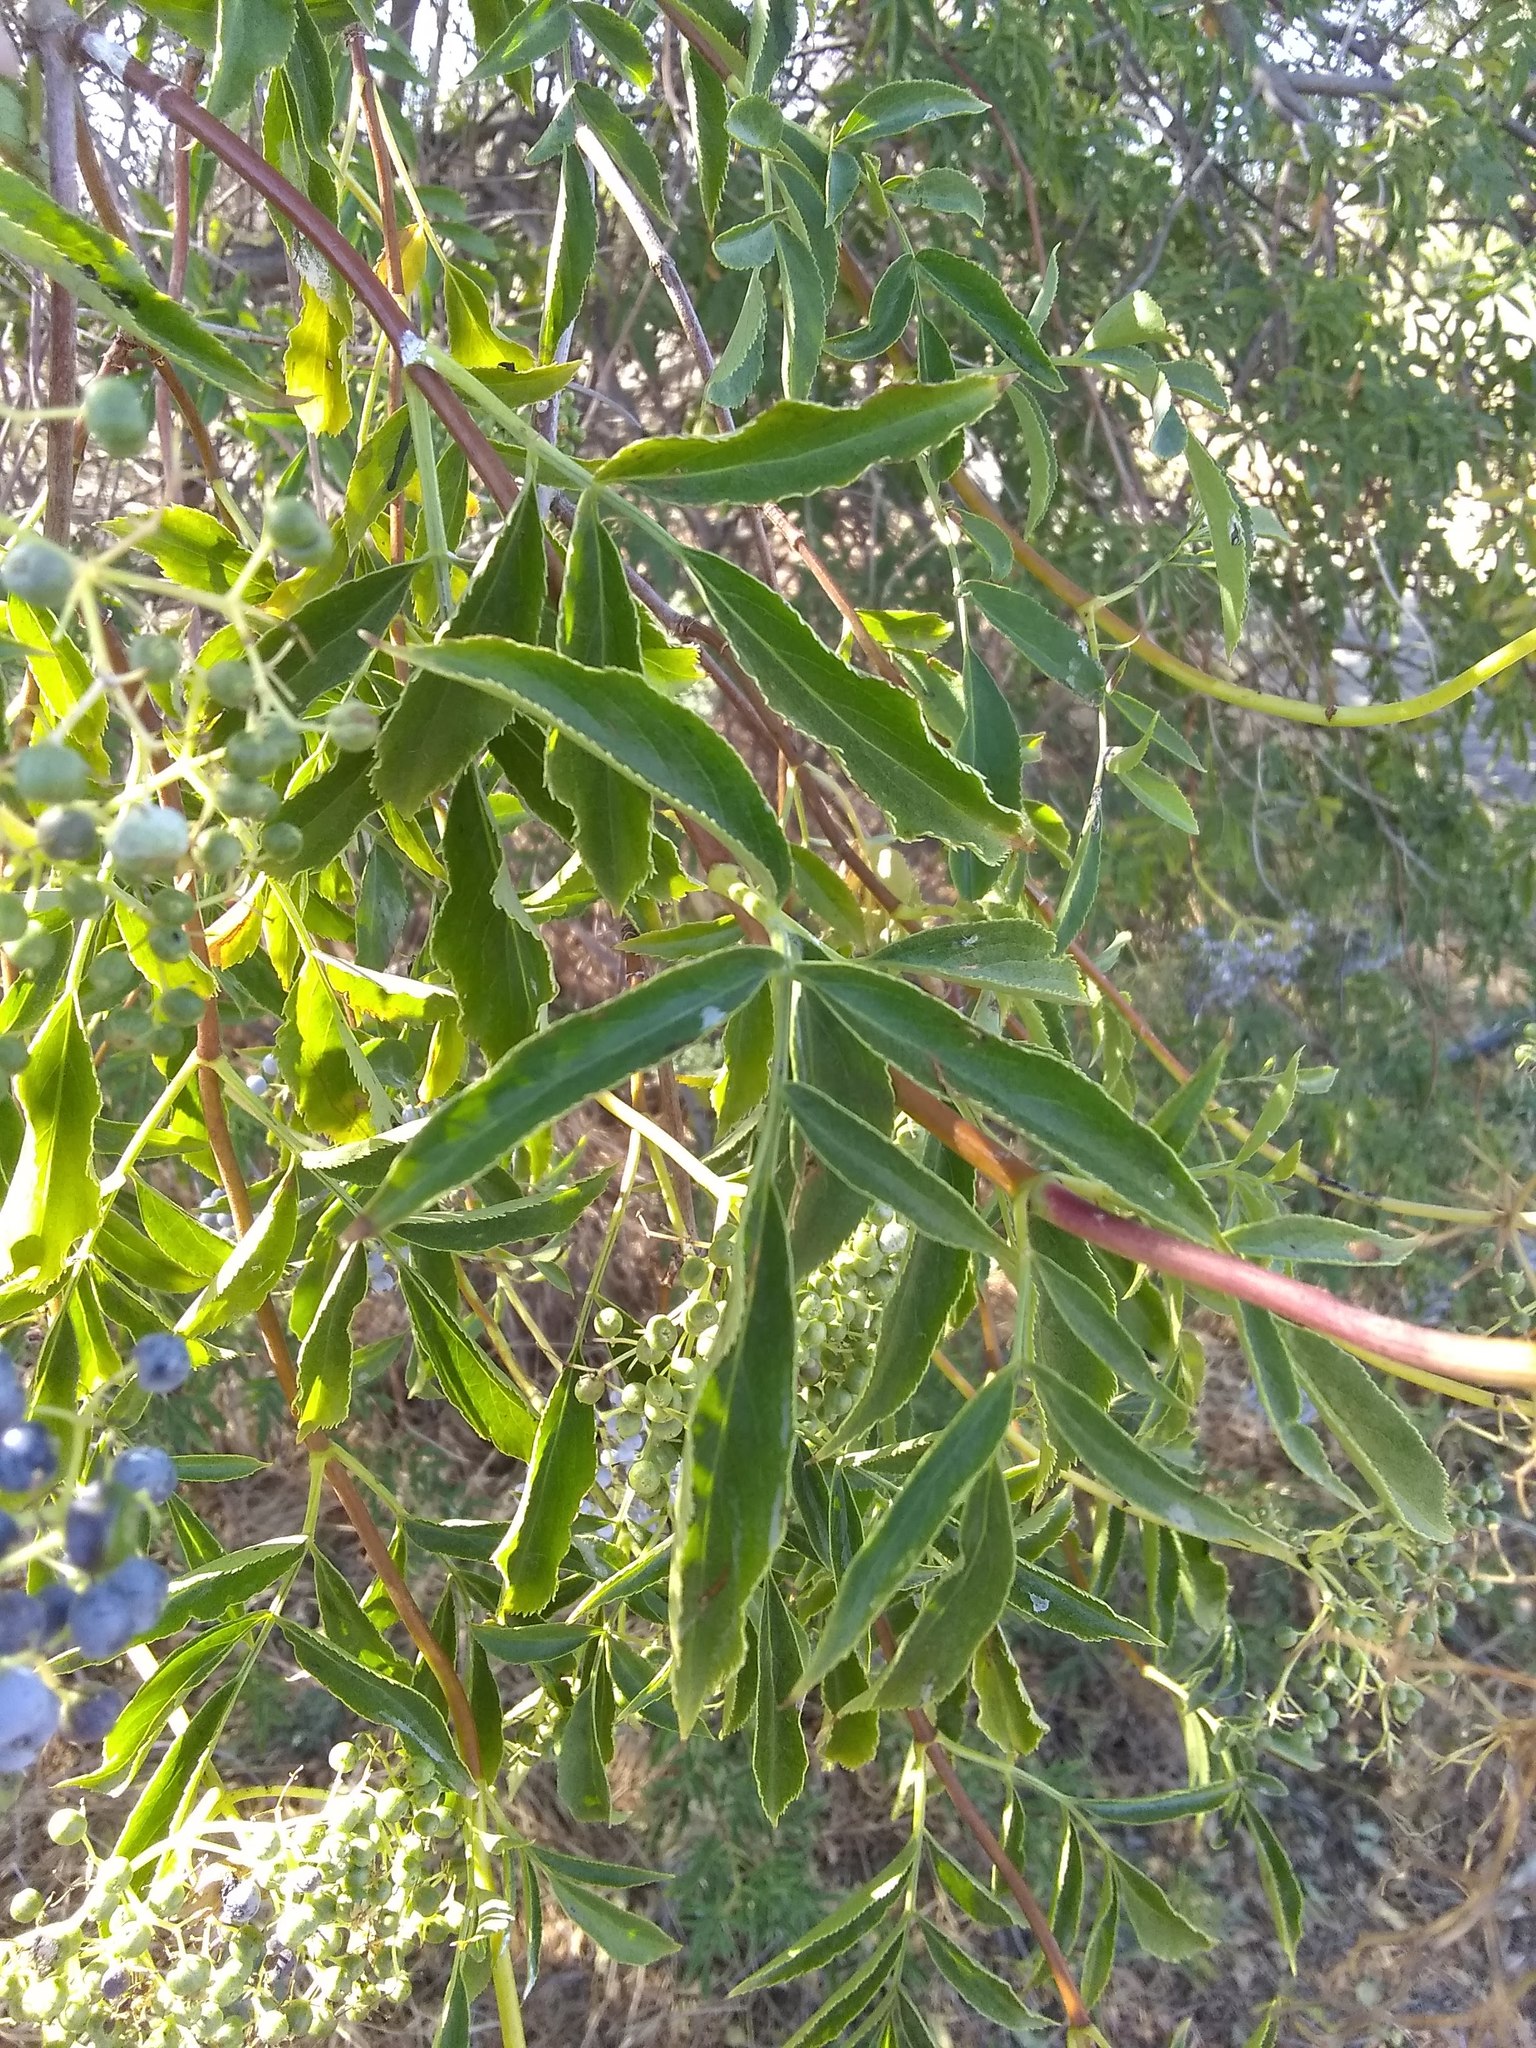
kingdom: Plantae
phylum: Tracheophyta
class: Magnoliopsida
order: Dipsacales
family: Viburnaceae
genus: Sambucus
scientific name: Sambucus cerulea
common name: Blue elder
